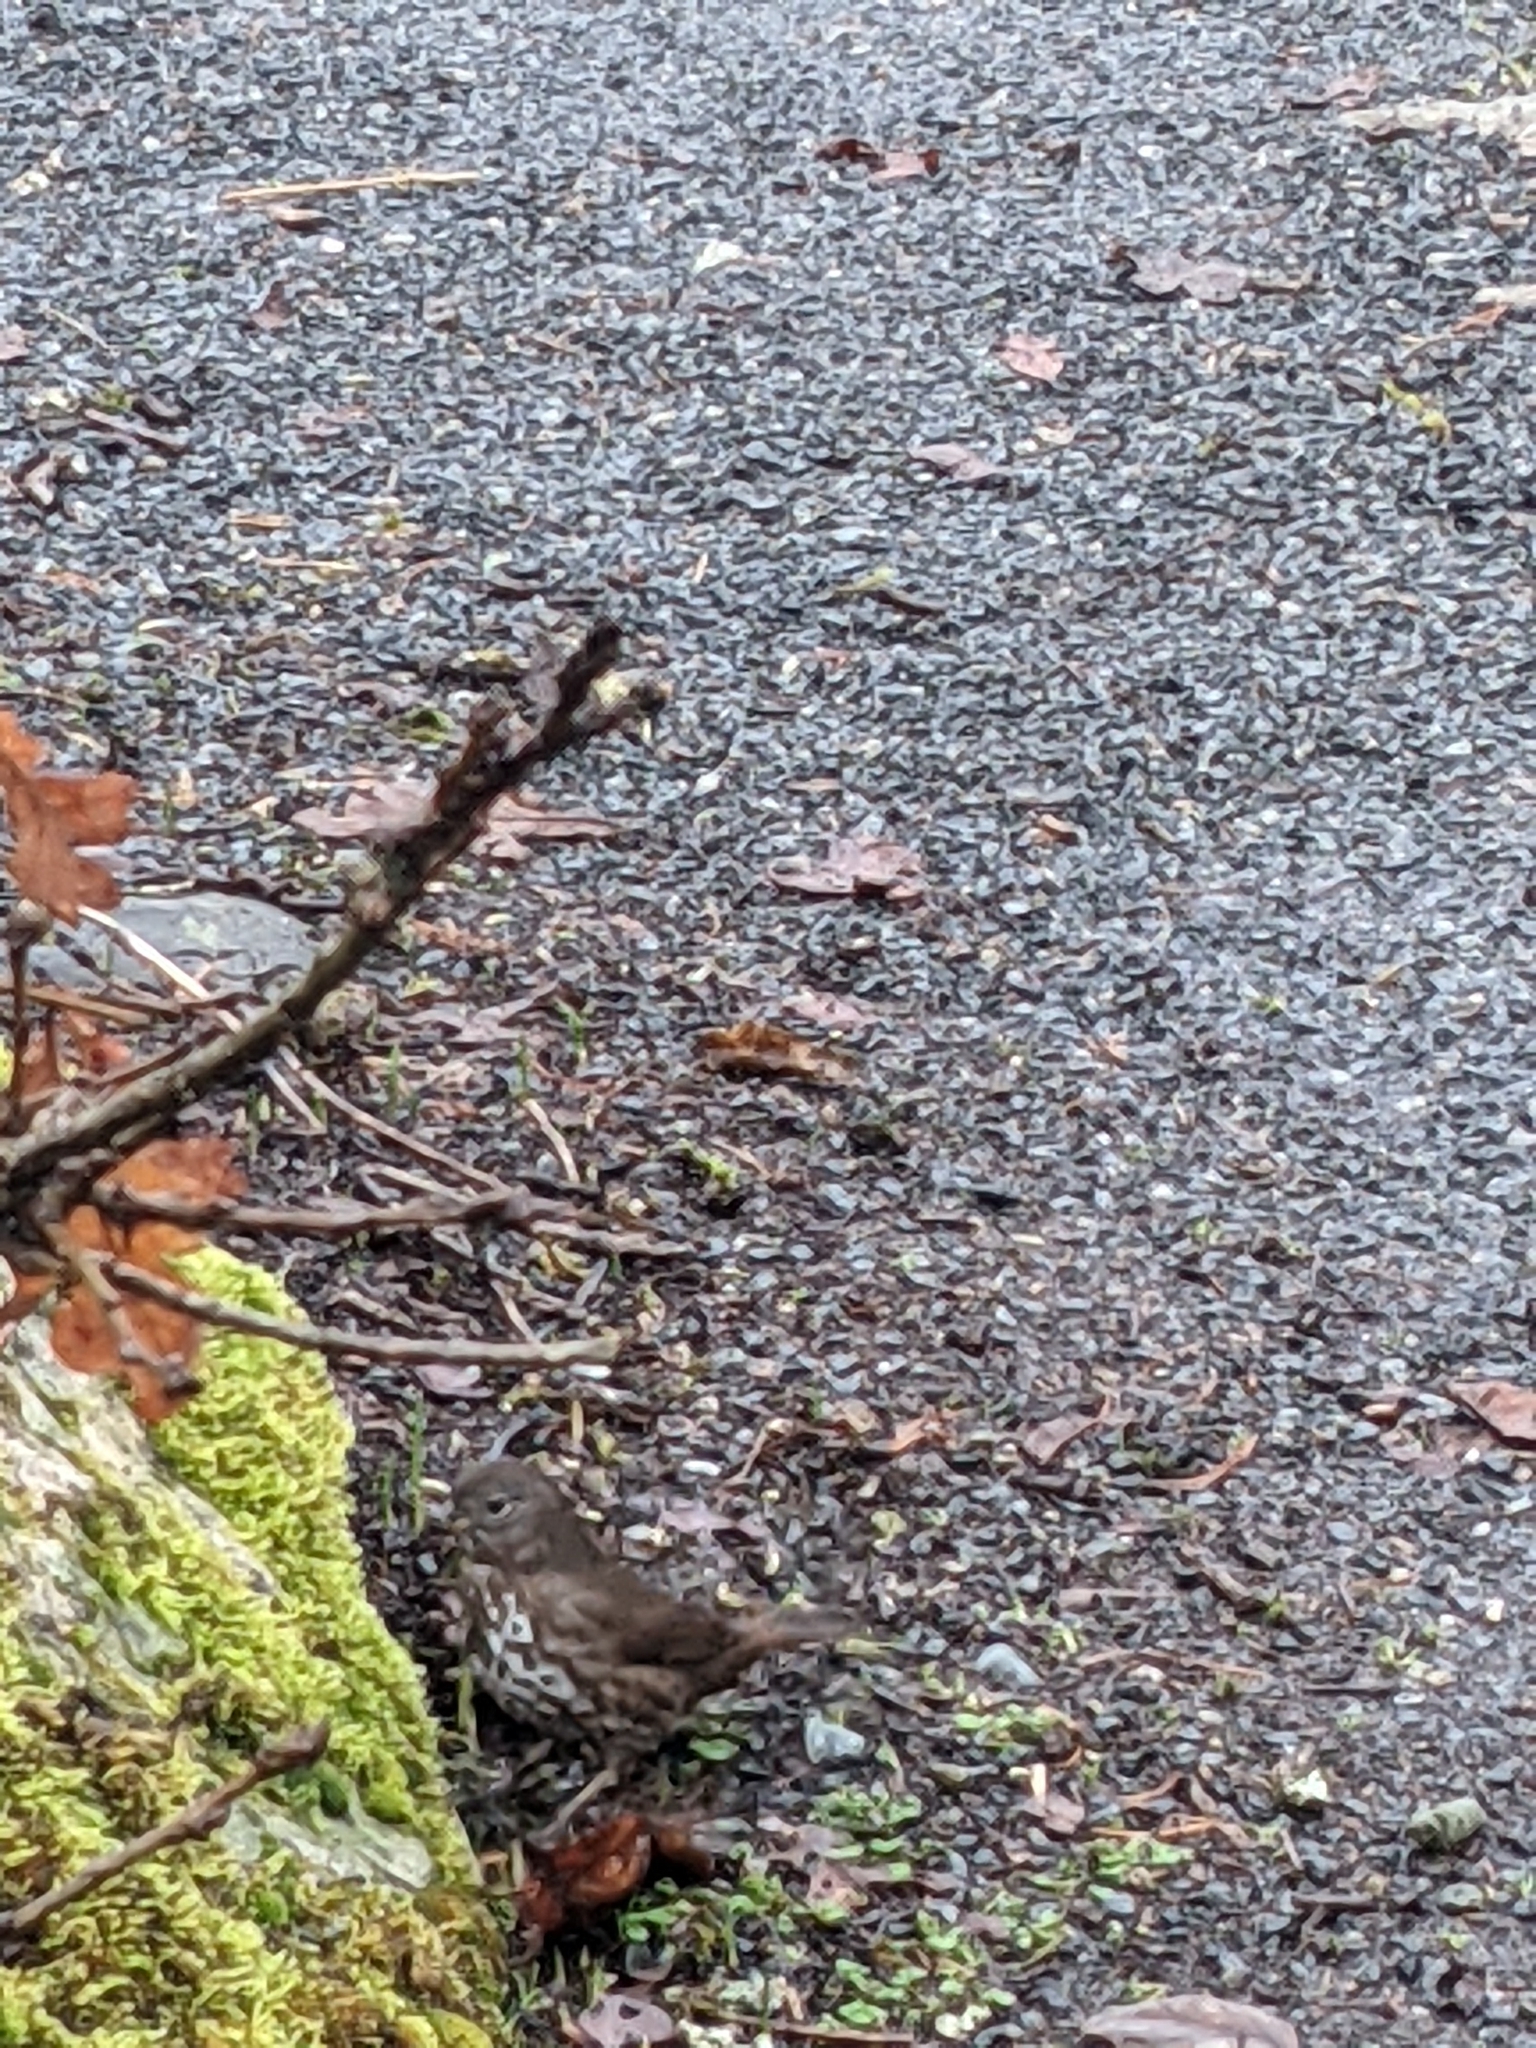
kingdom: Animalia
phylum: Chordata
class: Aves
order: Passeriformes
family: Passerellidae
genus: Passerella
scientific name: Passerella iliaca
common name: Fox sparrow
